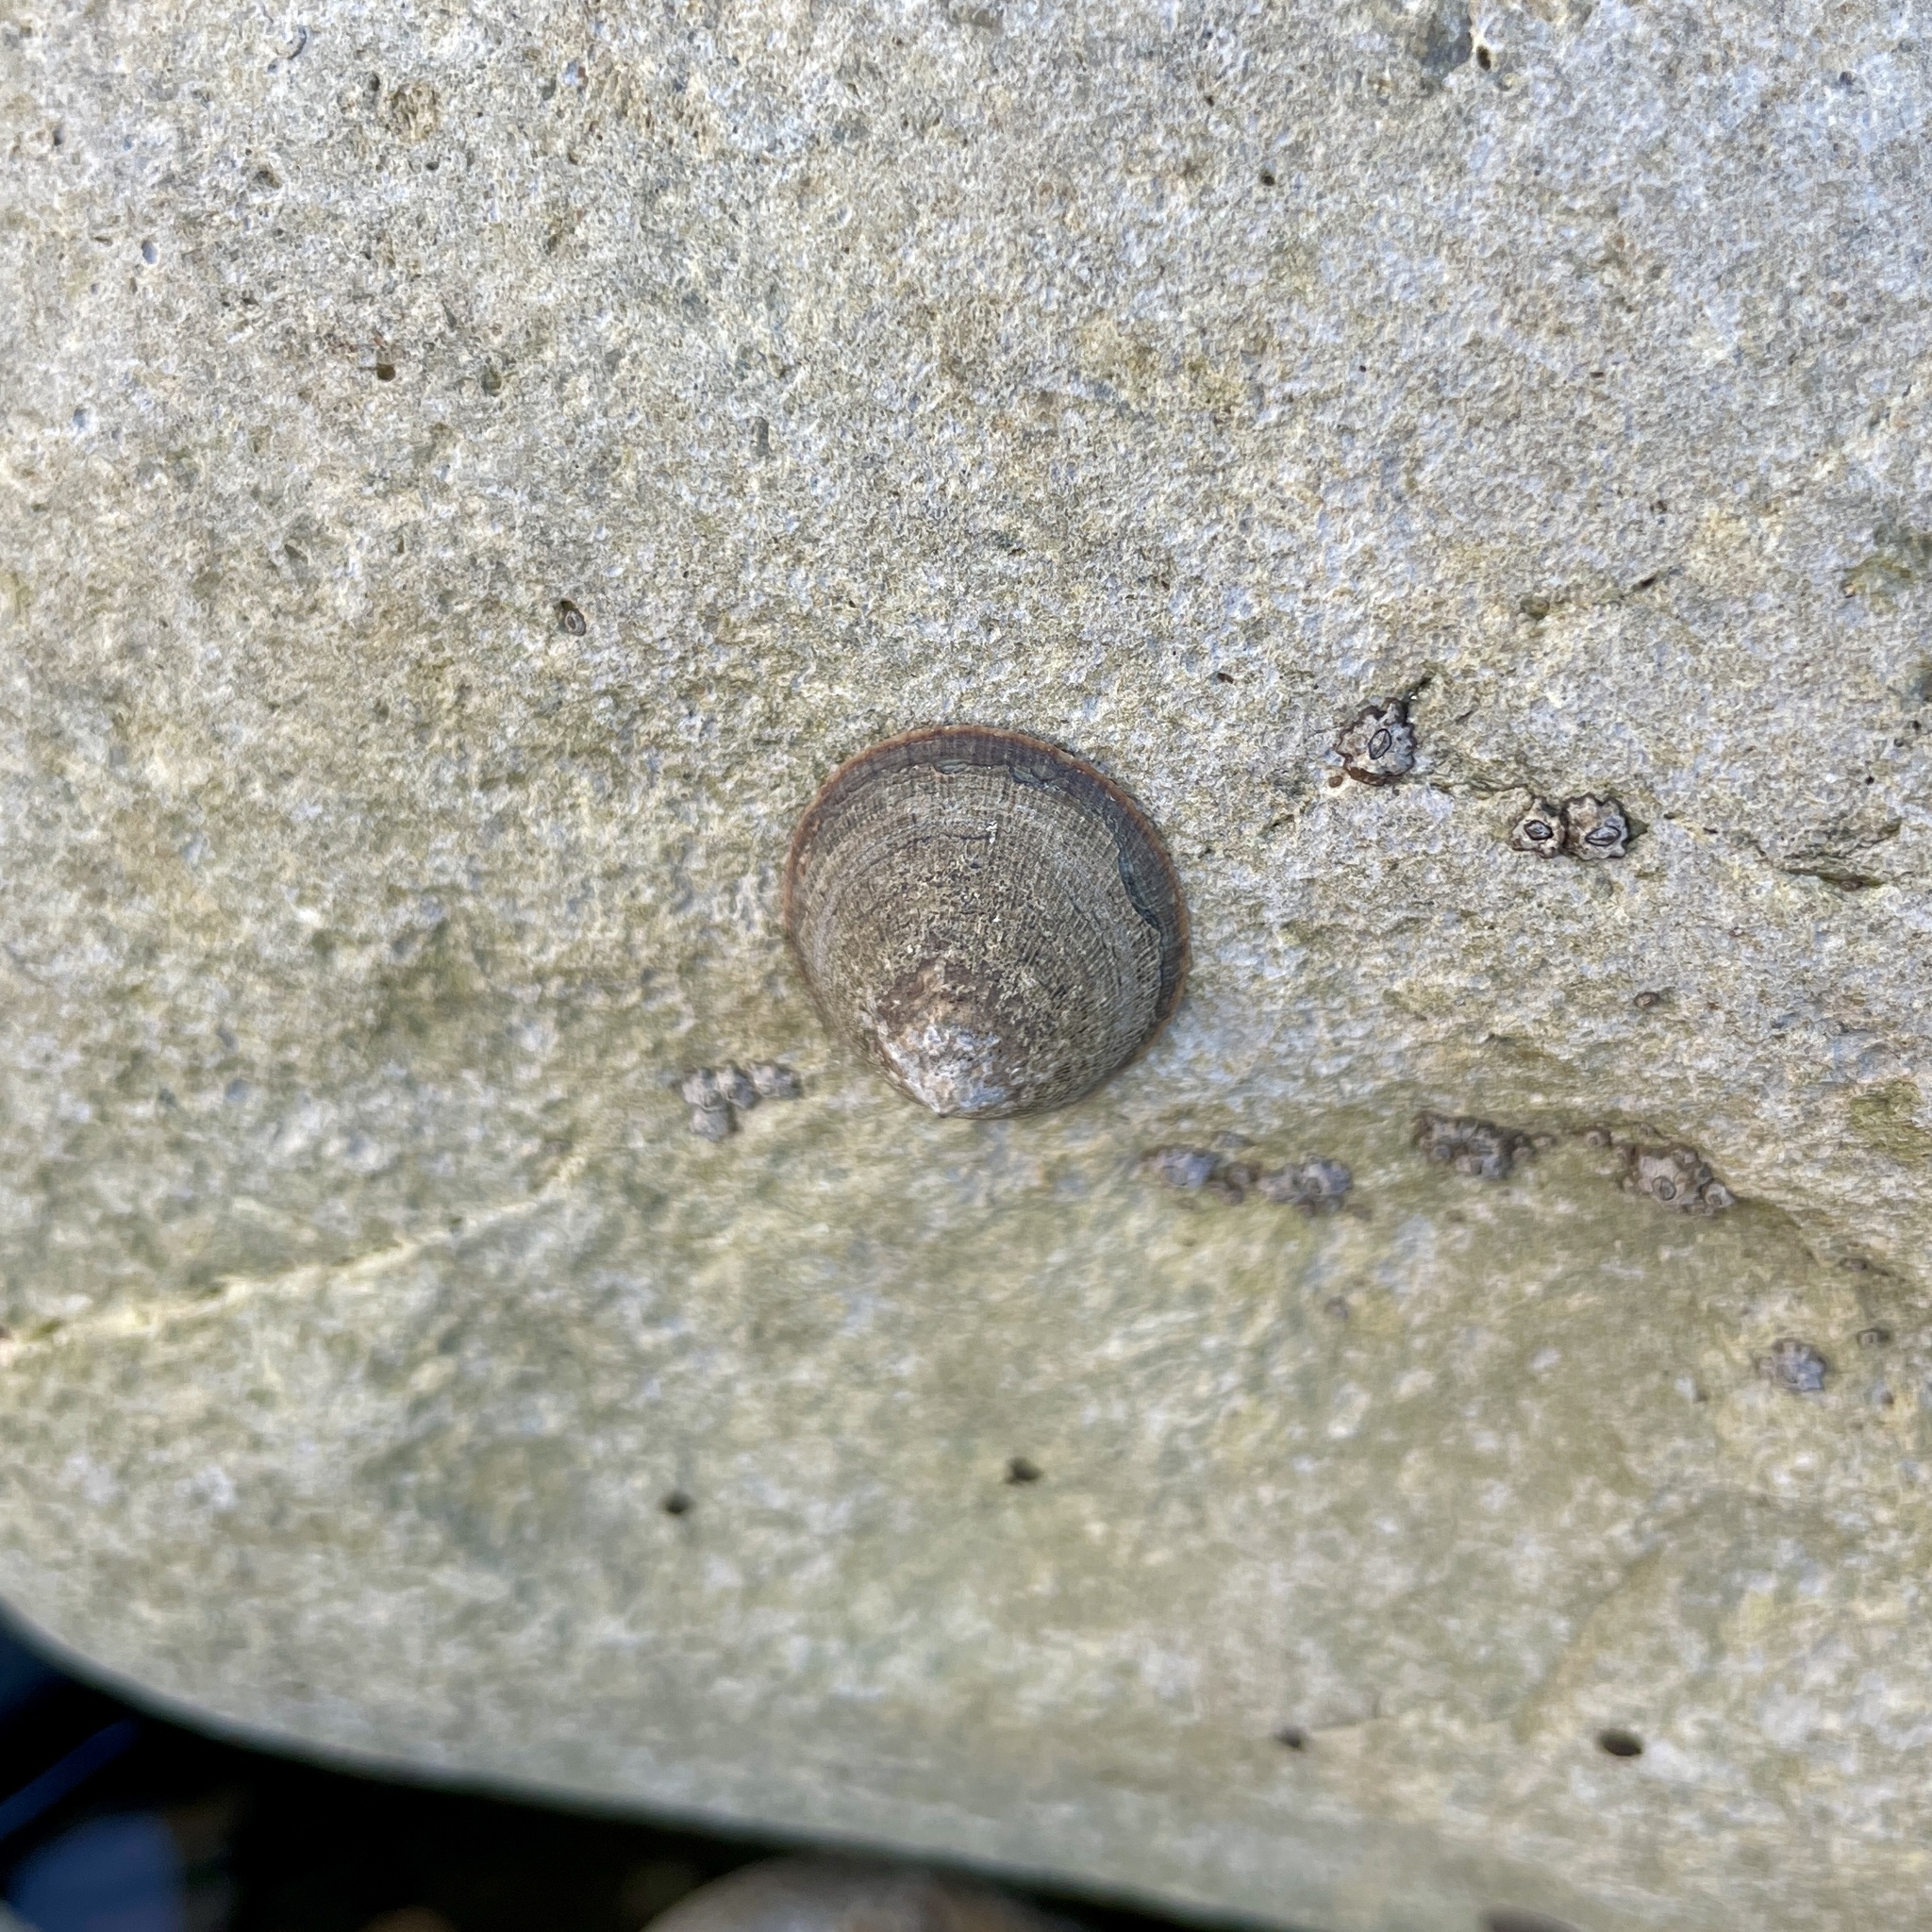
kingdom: Animalia
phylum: Mollusca
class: Gastropoda
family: Lottiidae
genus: Lottia
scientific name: Lottia limatula
